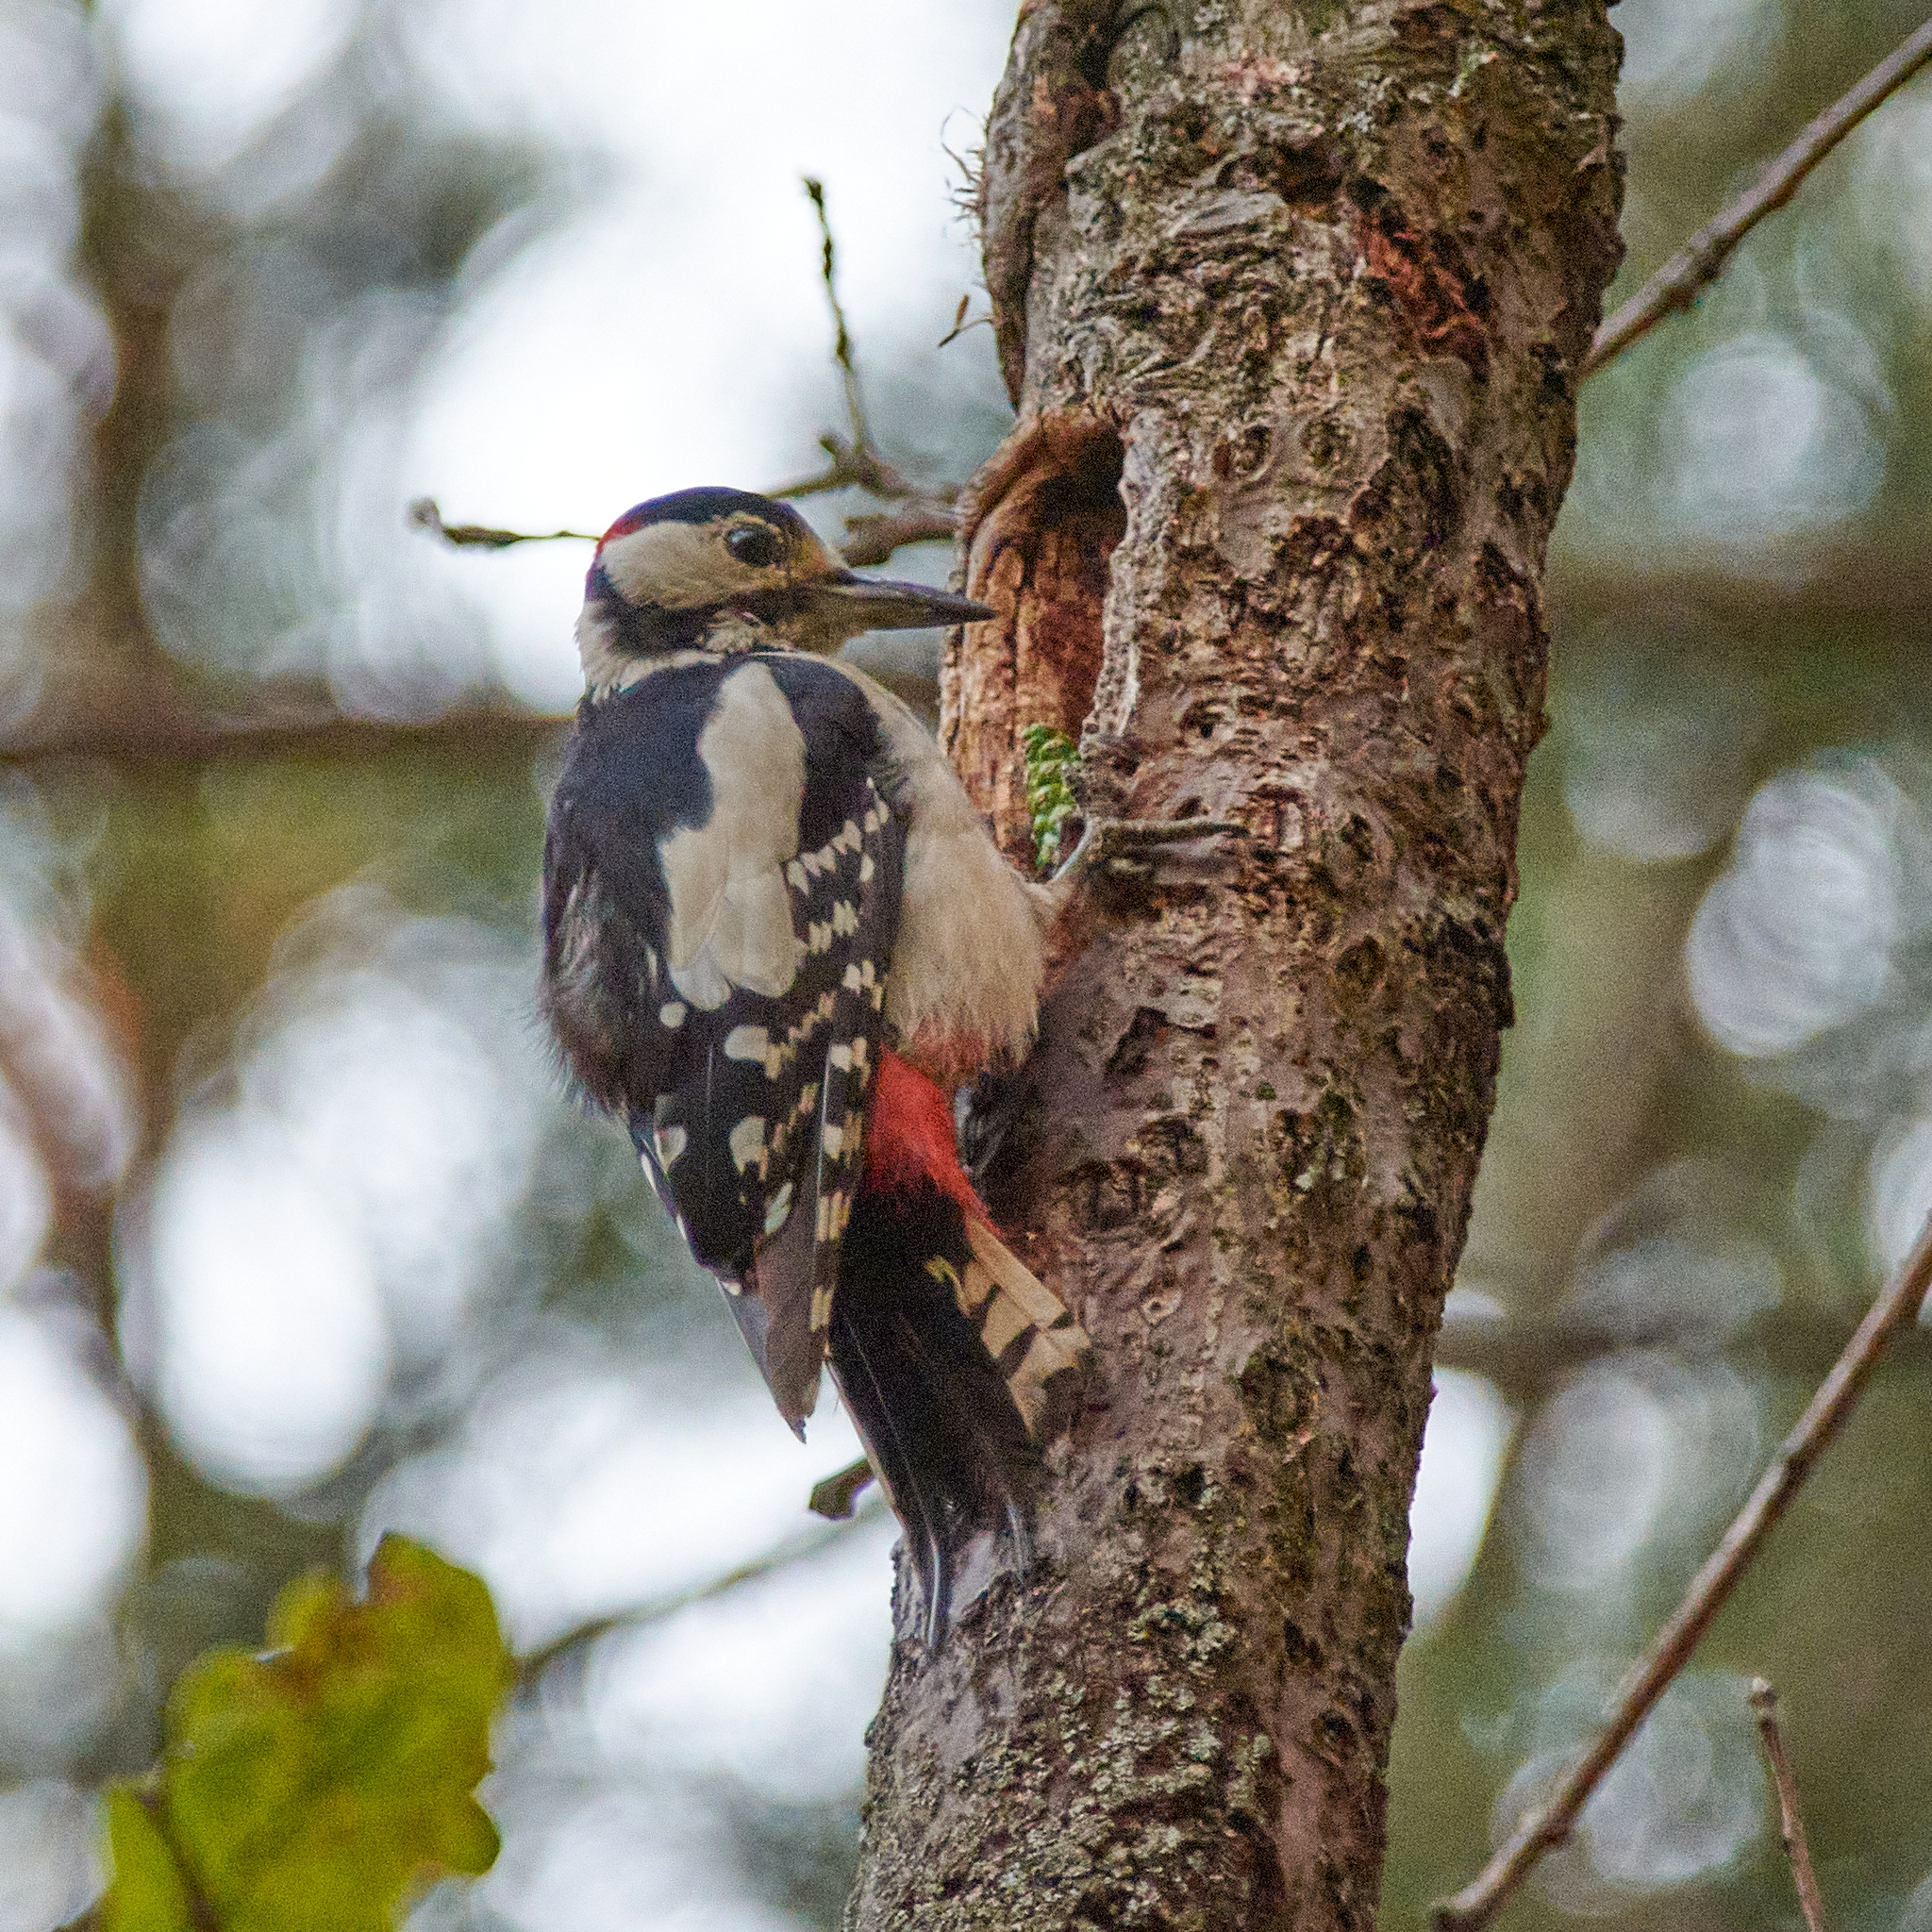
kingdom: Animalia
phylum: Chordata
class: Aves
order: Piciformes
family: Picidae
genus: Dendrocopos
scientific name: Dendrocopos major
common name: Great spotted woodpecker
